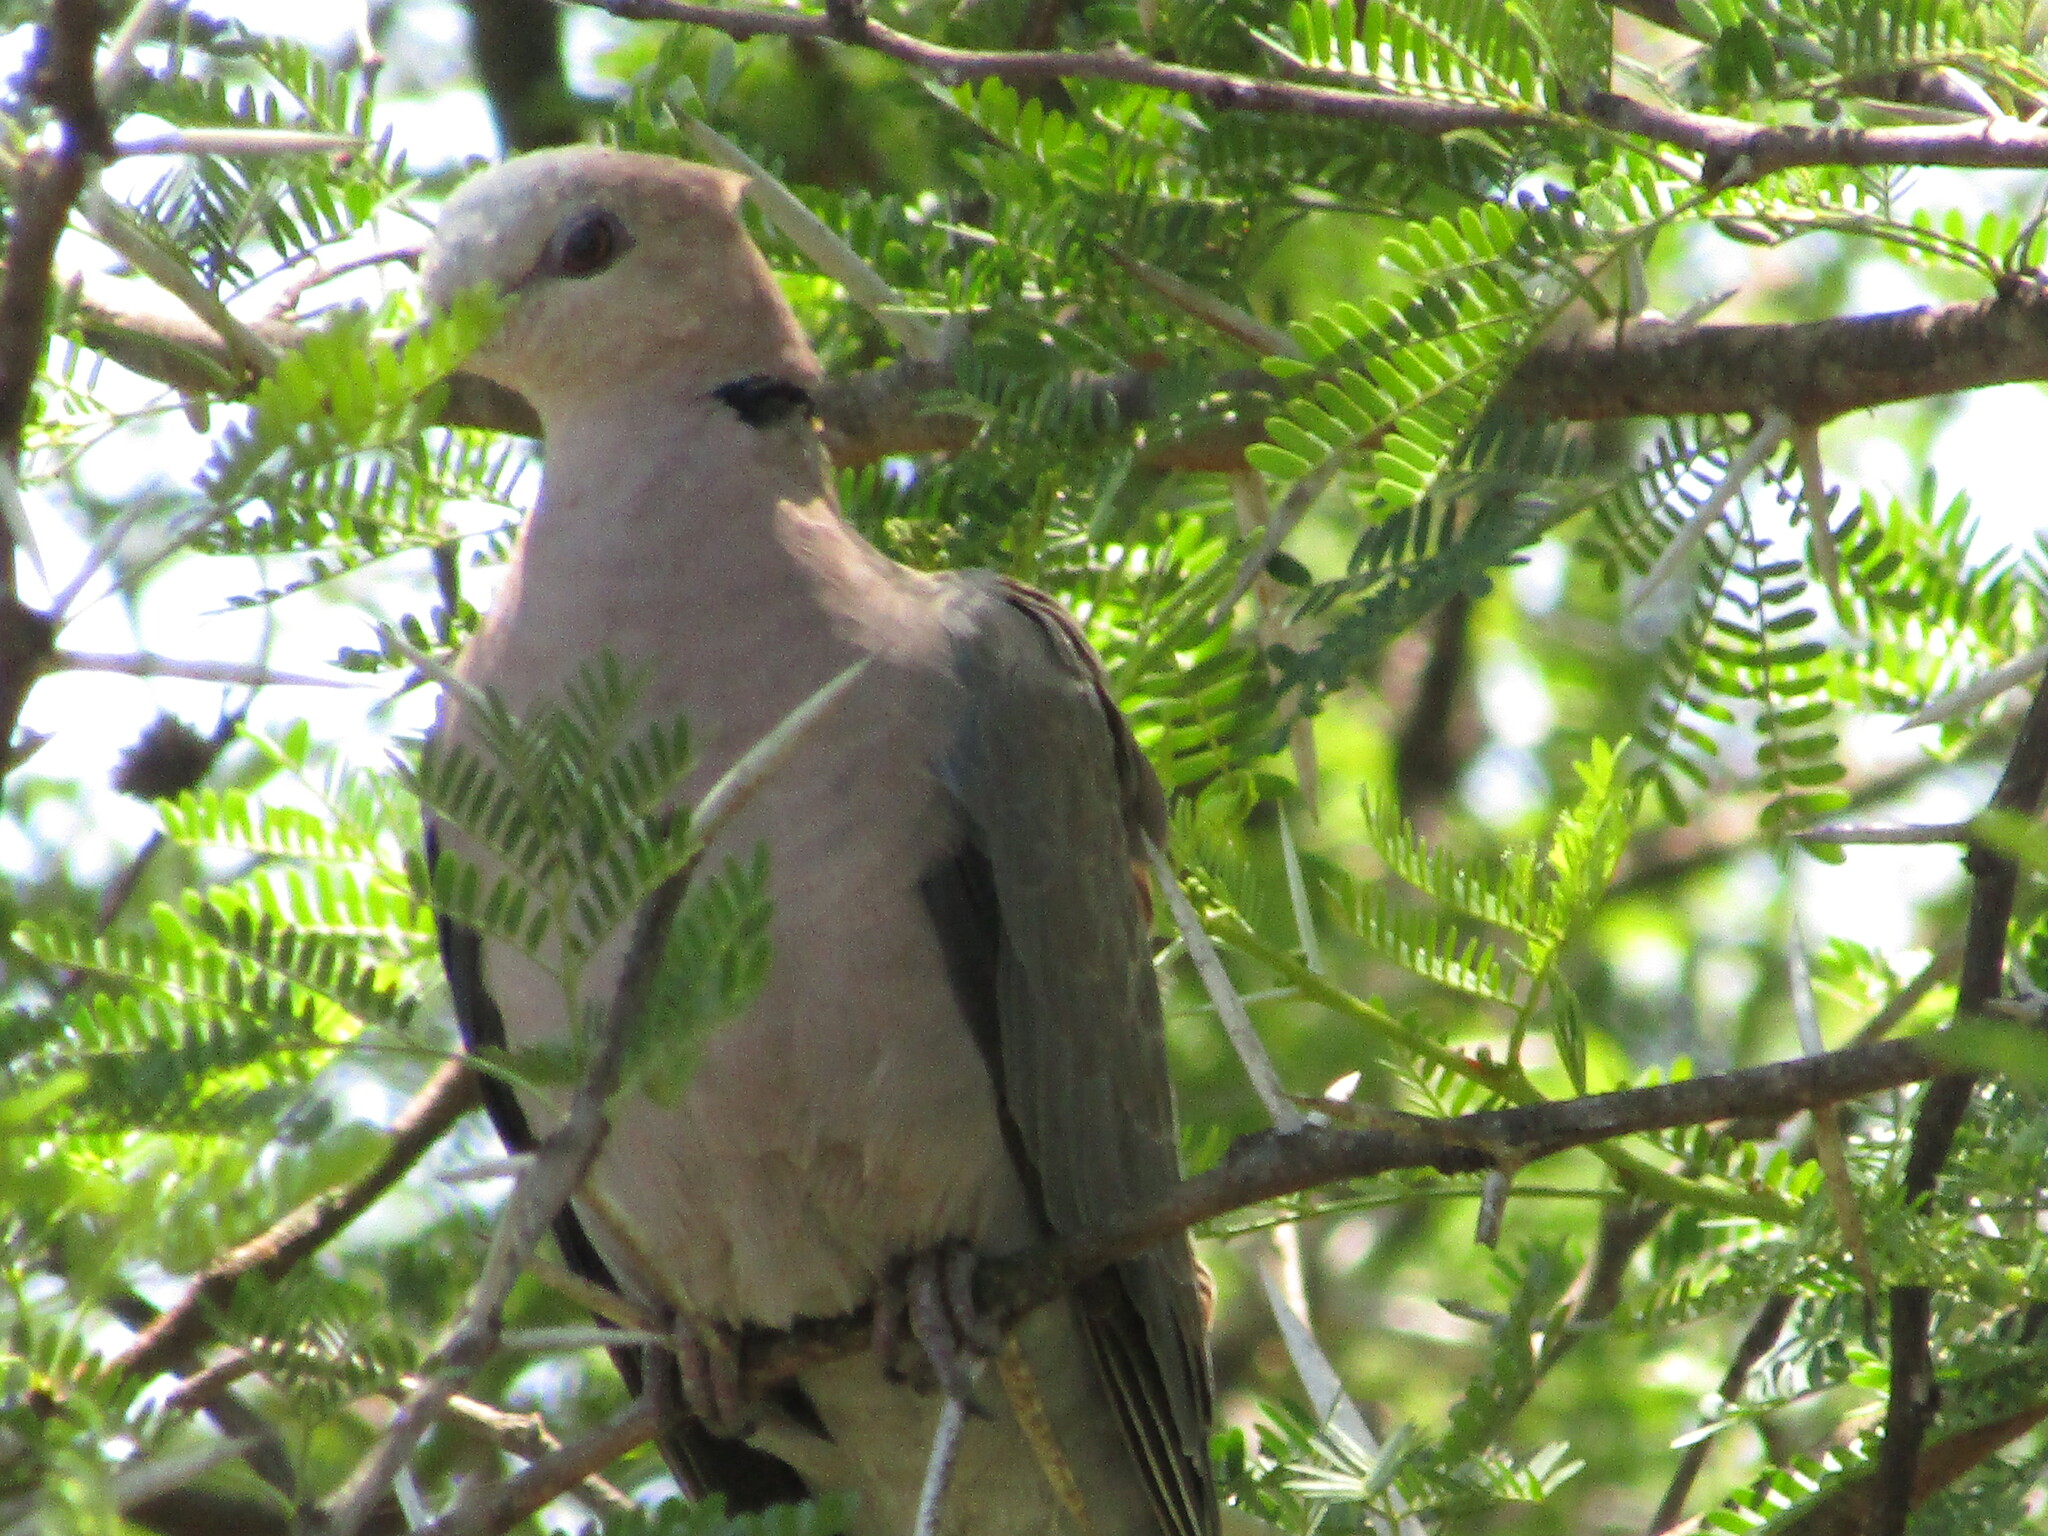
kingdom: Animalia
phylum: Chordata
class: Aves
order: Columbiformes
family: Columbidae
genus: Streptopelia
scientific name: Streptopelia semitorquata
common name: Red-eyed dove
